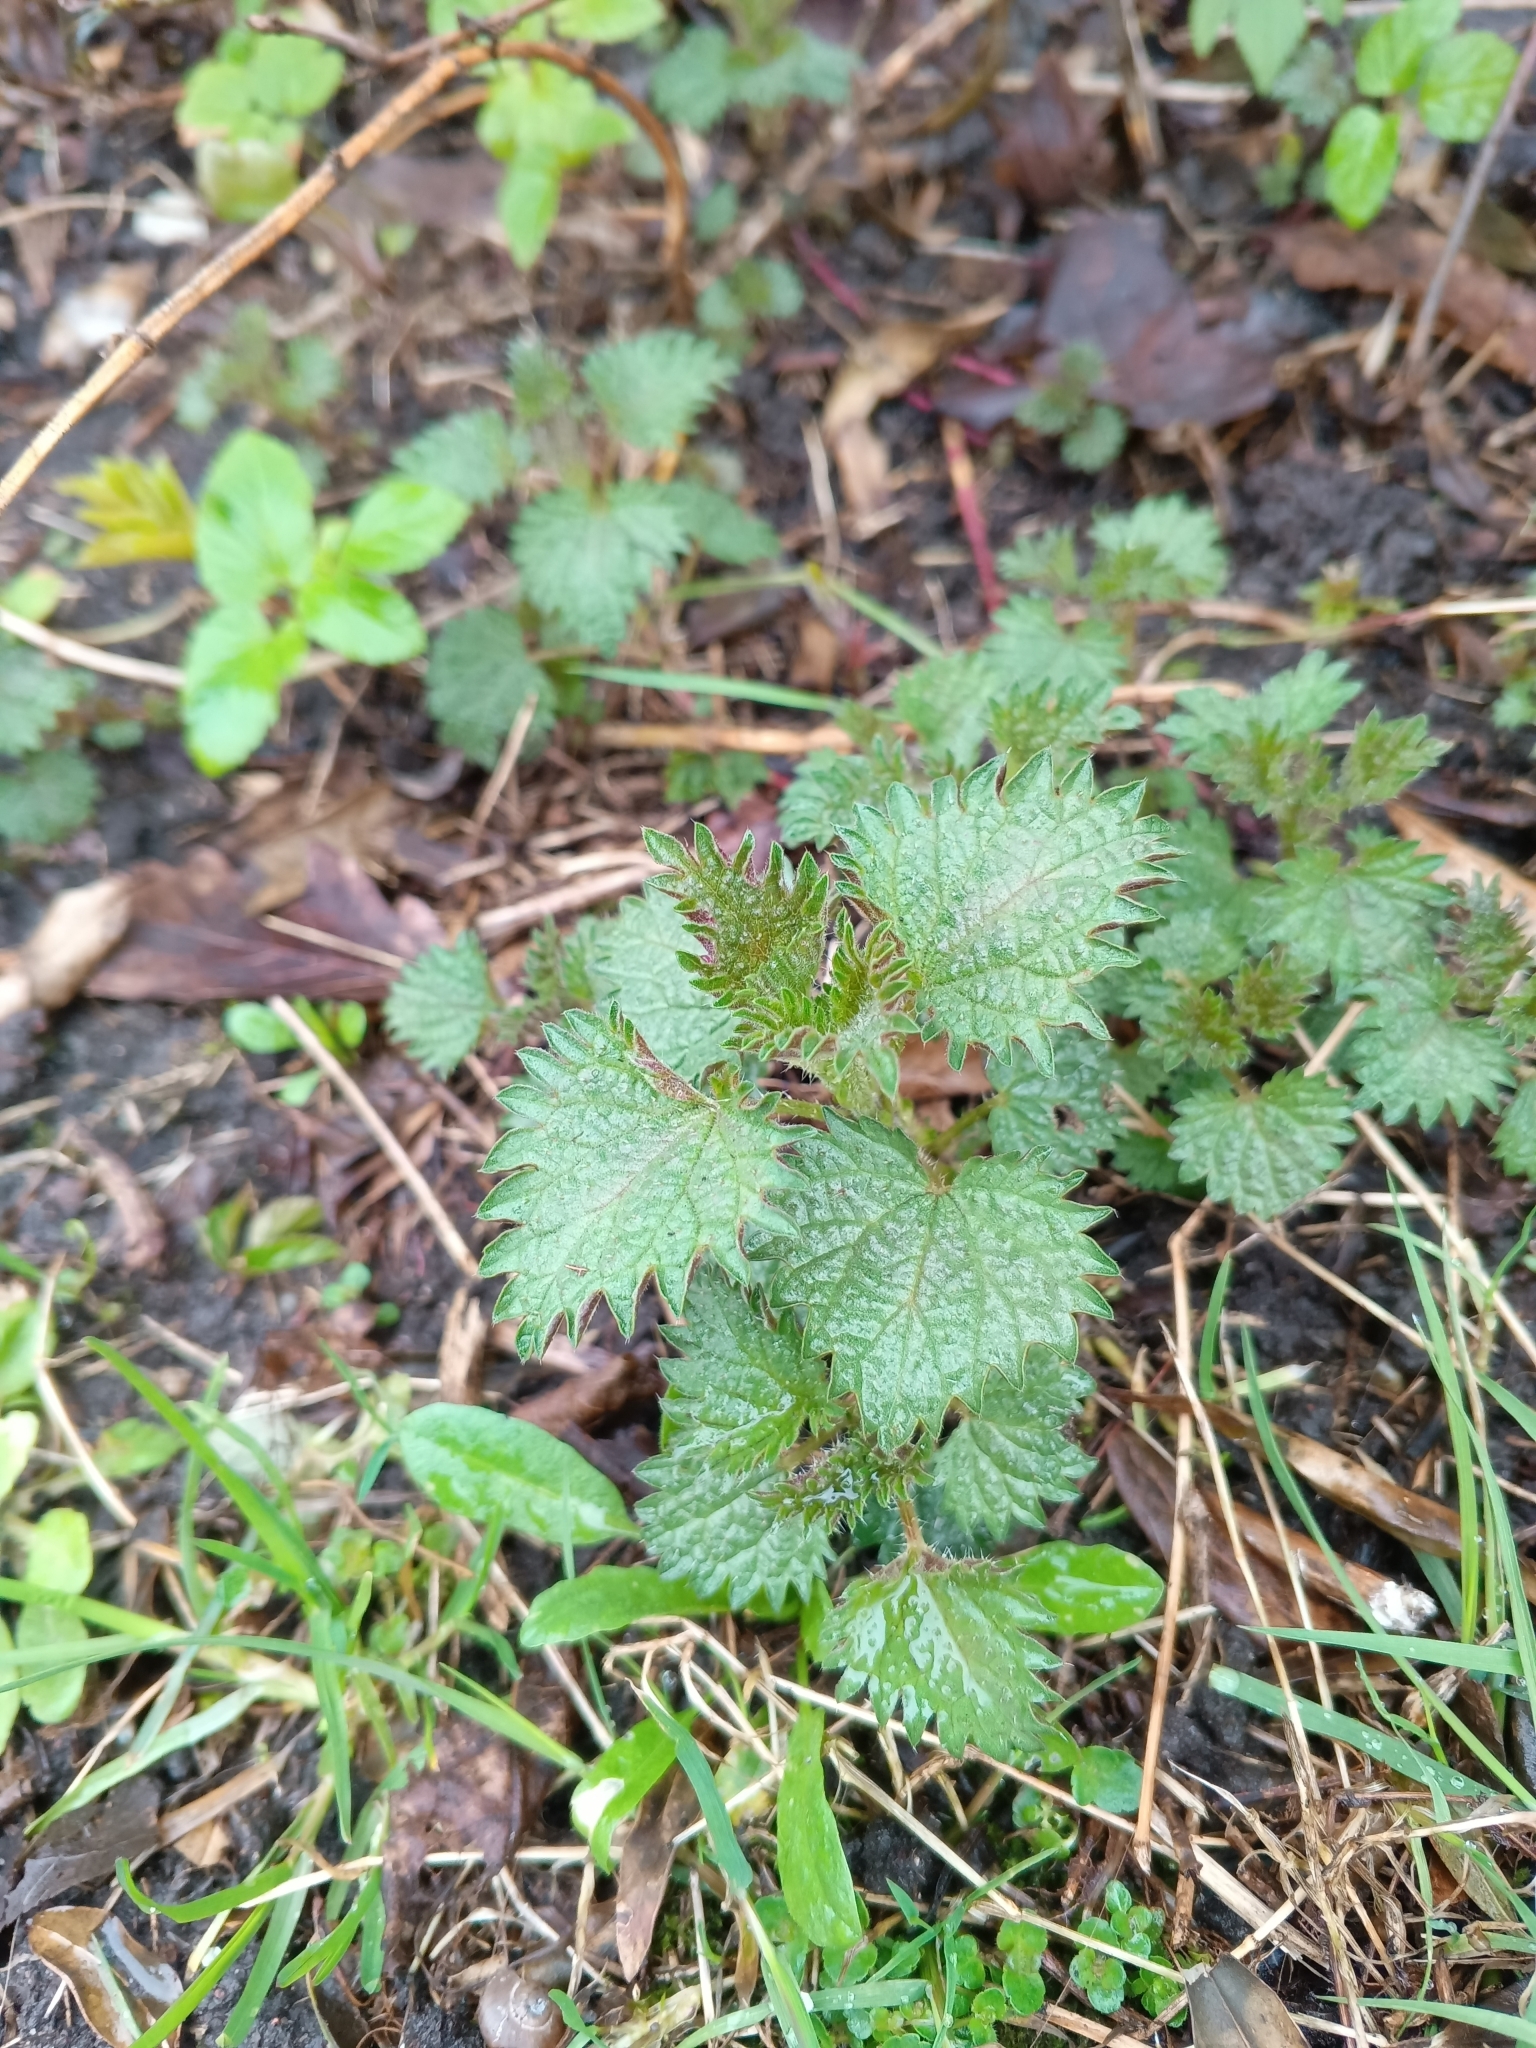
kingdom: Plantae
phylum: Tracheophyta
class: Magnoliopsida
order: Rosales
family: Urticaceae
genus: Urtica
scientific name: Urtica dioica
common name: Common nettle
